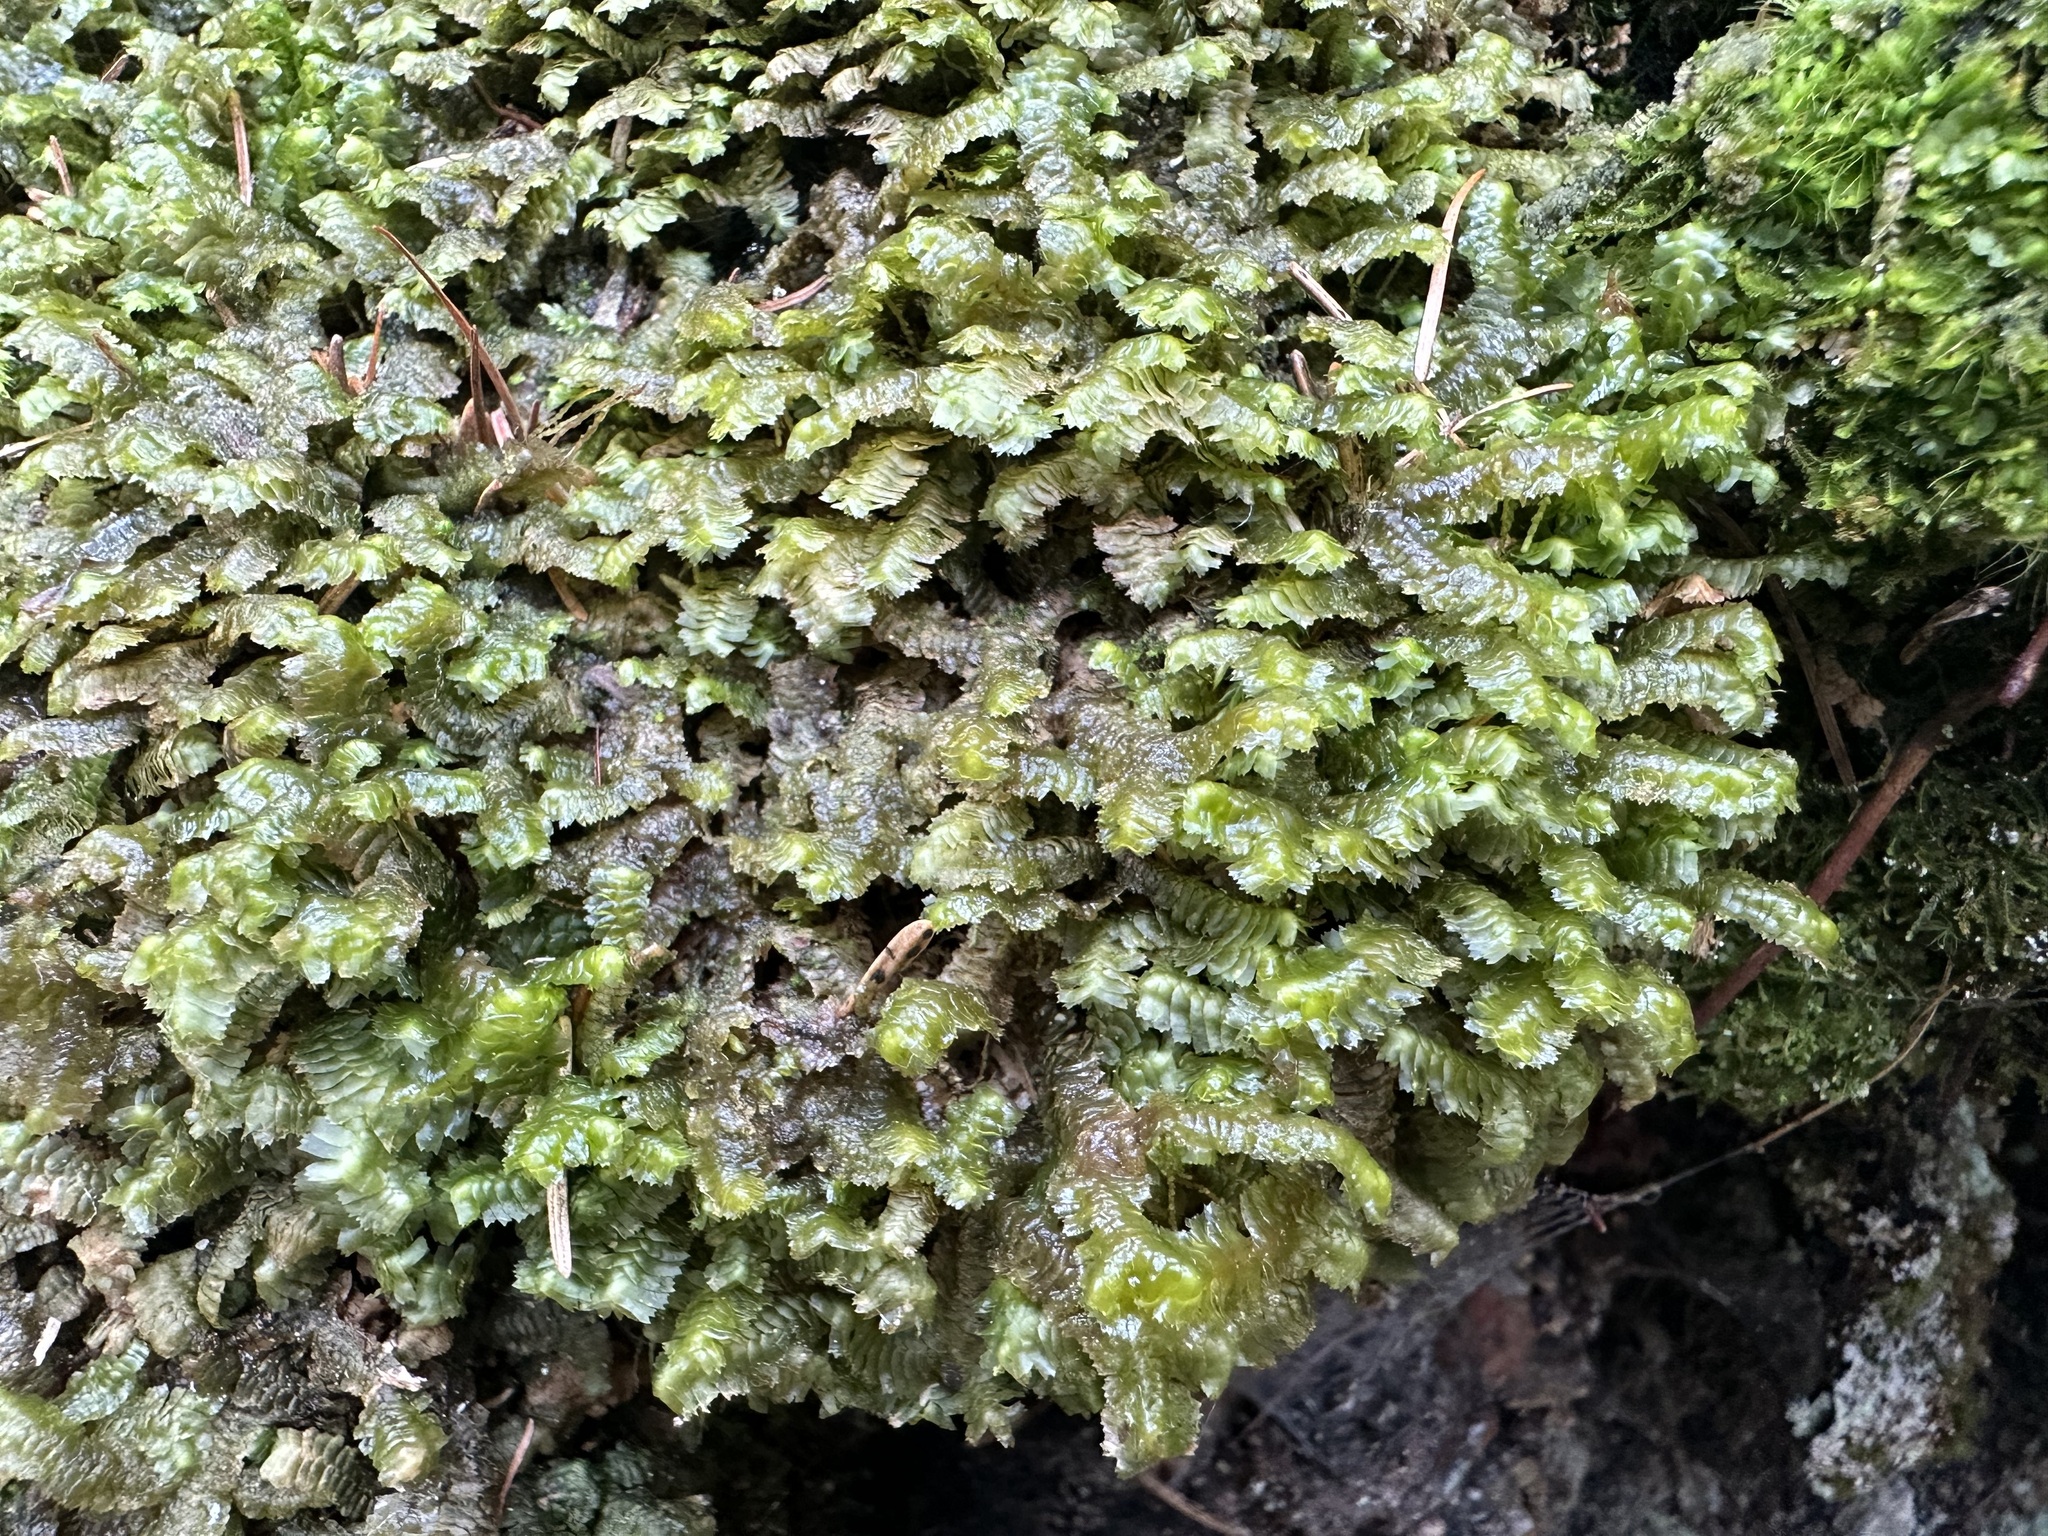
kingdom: Plantae
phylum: Marchantiophyta
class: Jungermanniopsida
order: Jungermanniales
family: Lepidoziaceae
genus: Bazzania
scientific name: Bazzania trilobata
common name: Three-lobed whipwort
